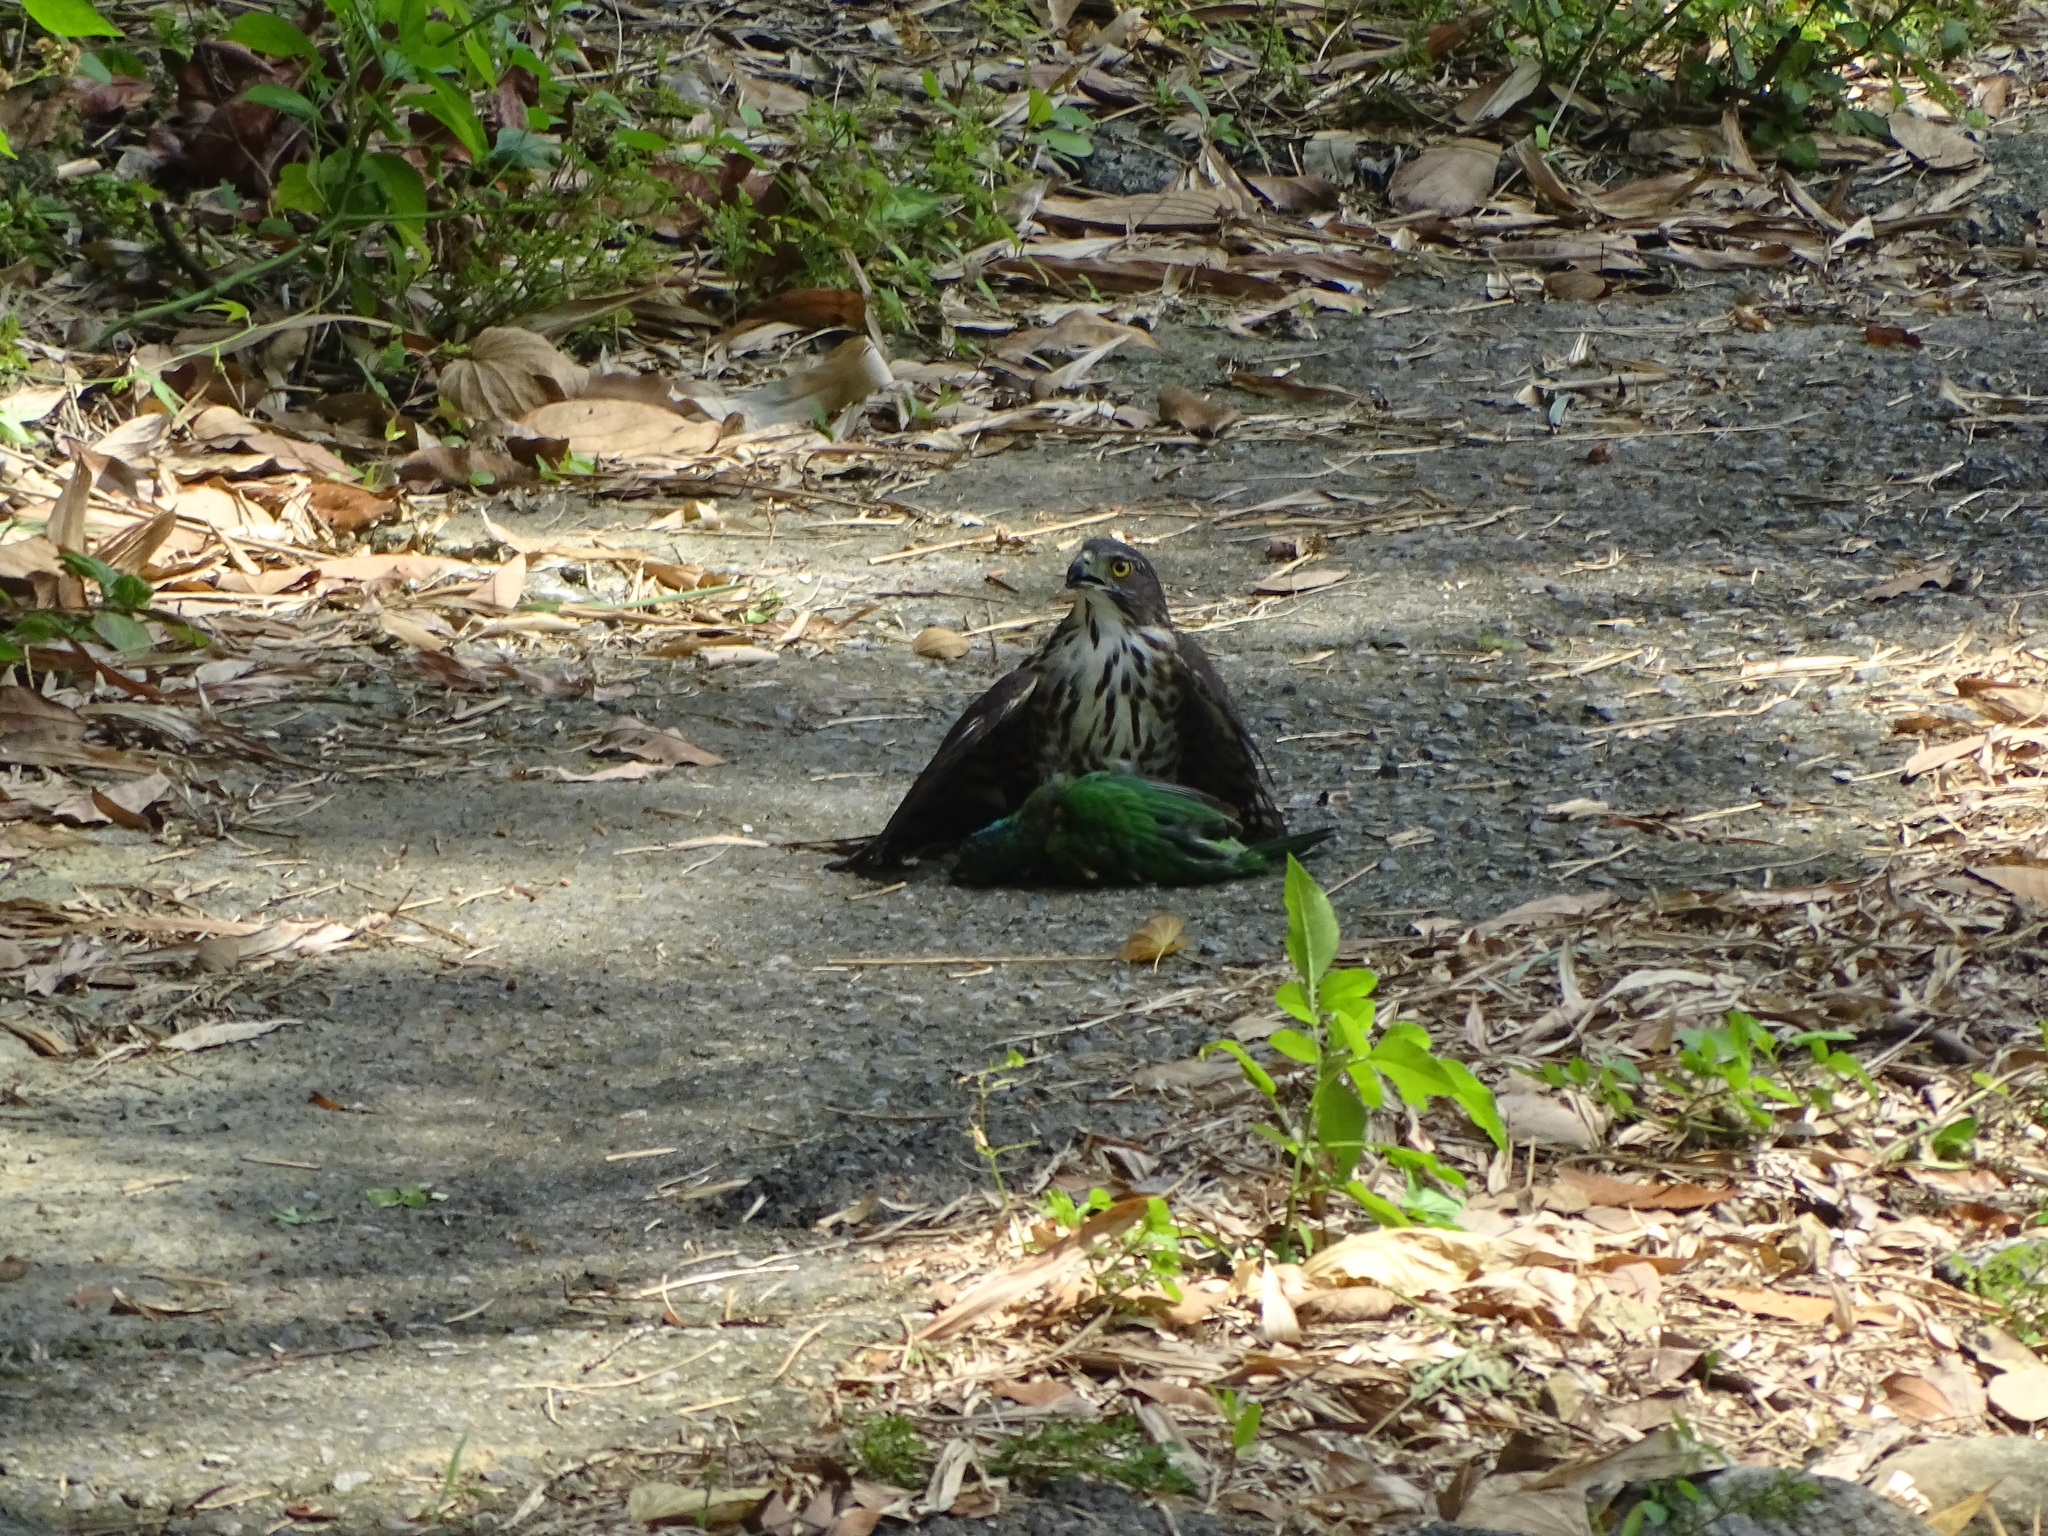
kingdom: Animalia
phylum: Chordata
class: Aves
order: Accipitriformes
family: Accipitridae
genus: Accipiter
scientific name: Accipiter trivirgatus
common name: Crested goshawk
